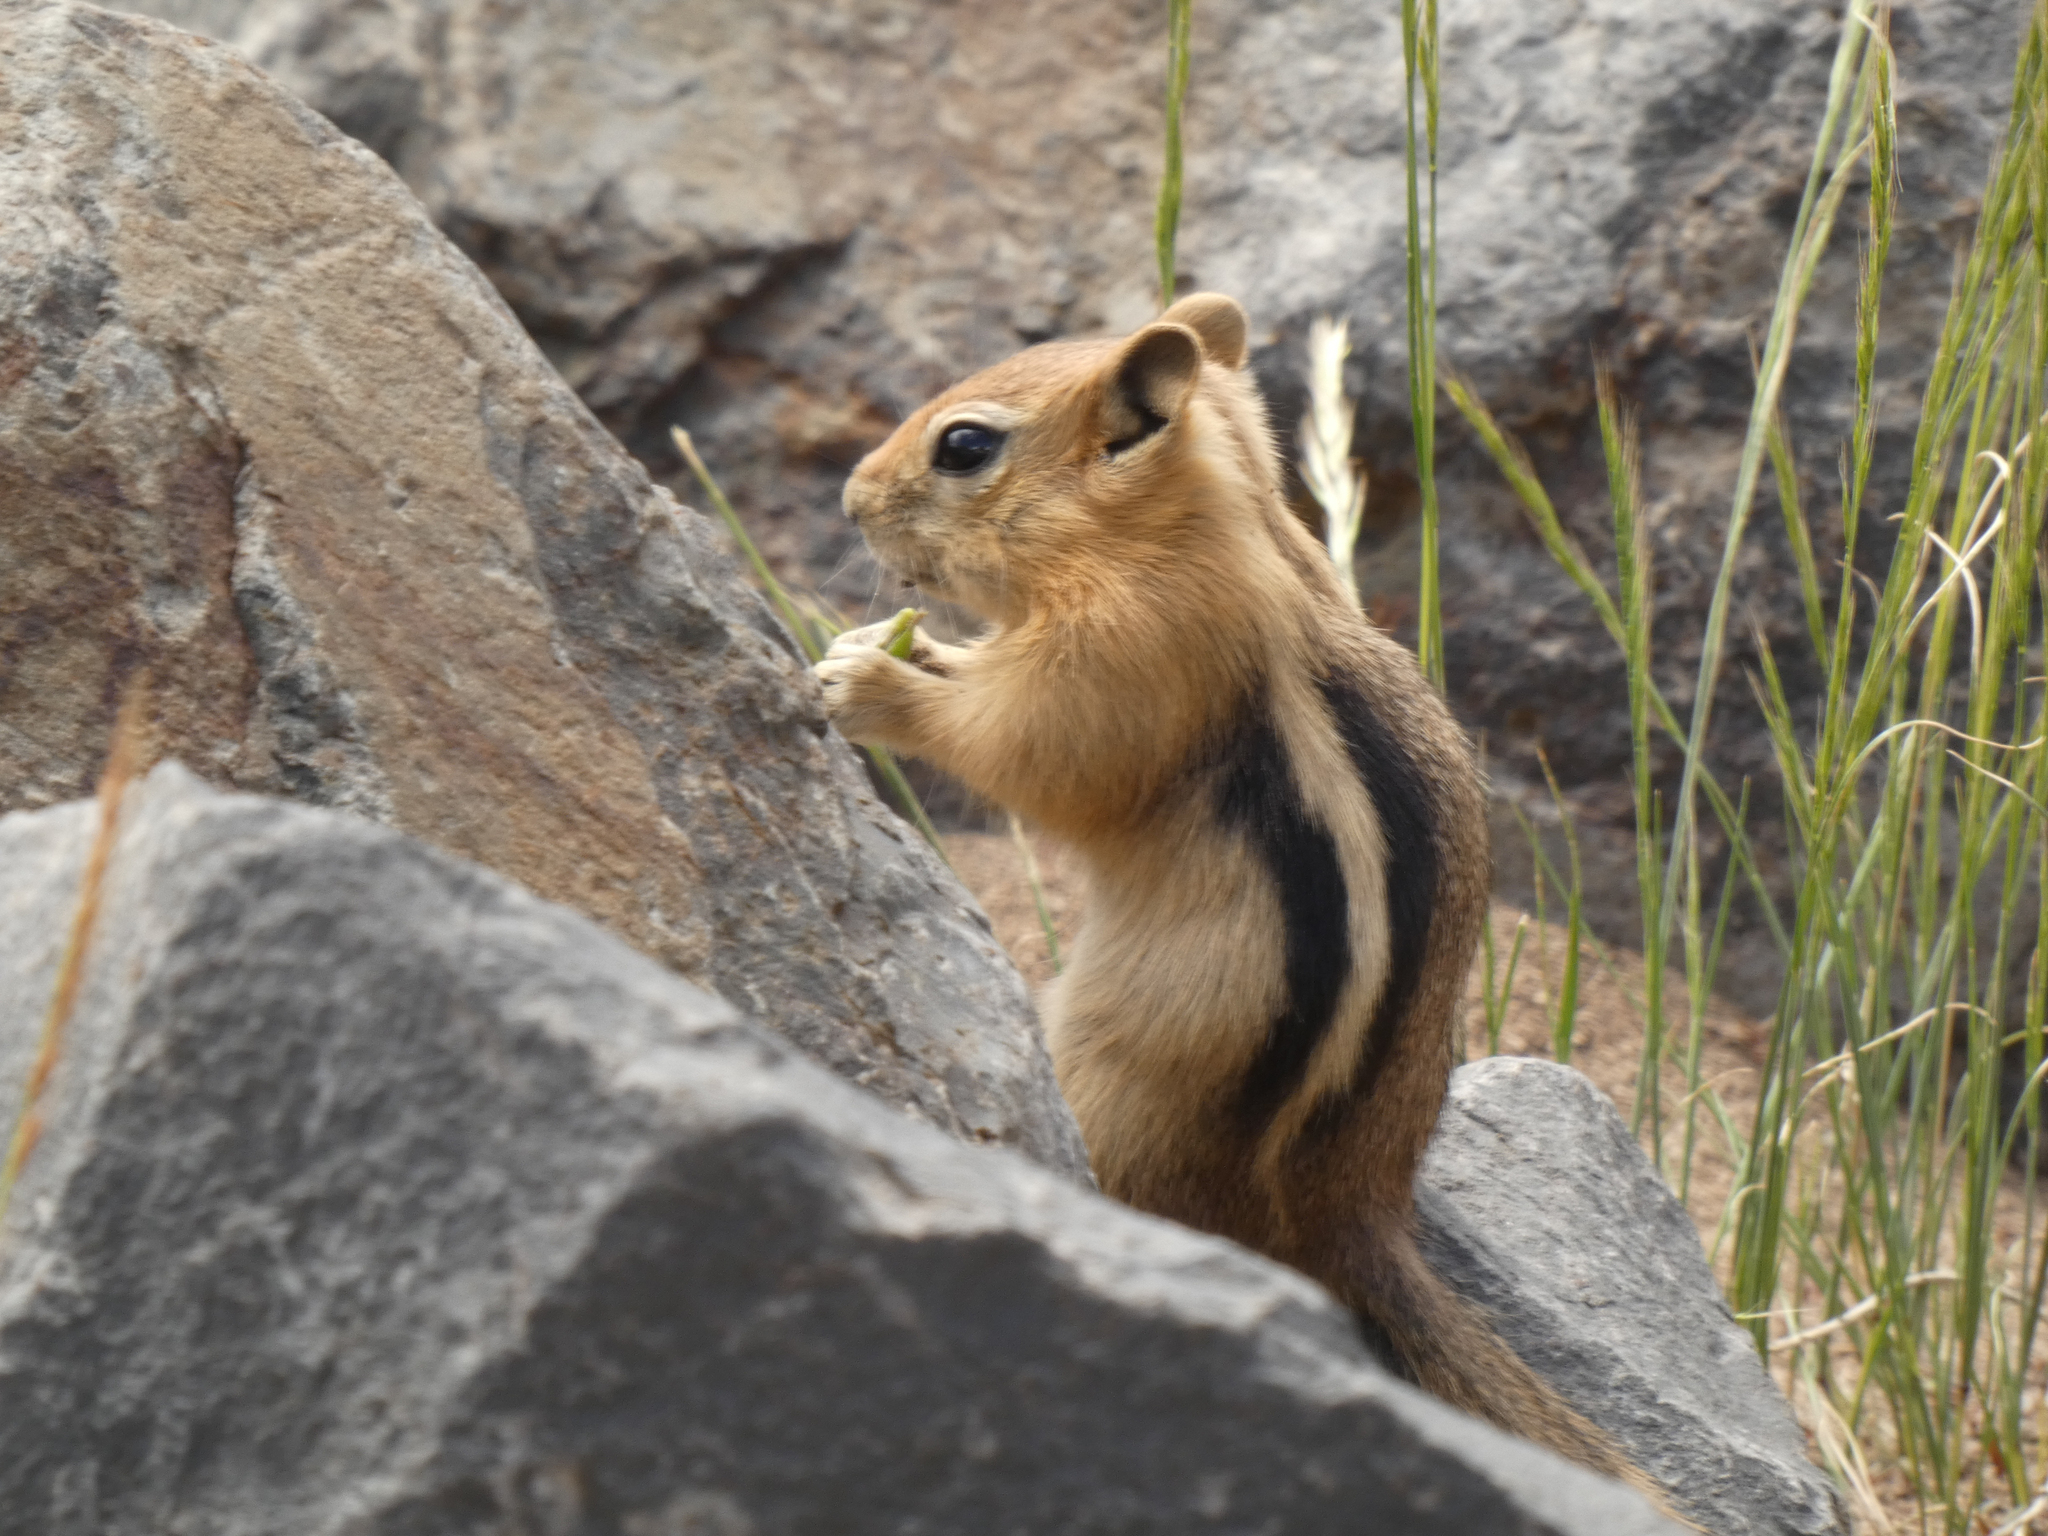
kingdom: Animalia
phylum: Chordata
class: Mammalia
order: Rodentia
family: Sciuridae
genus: Callospermophilus
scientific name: Callospermophilus lateralis
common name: Golden-mantled ground squirrel
